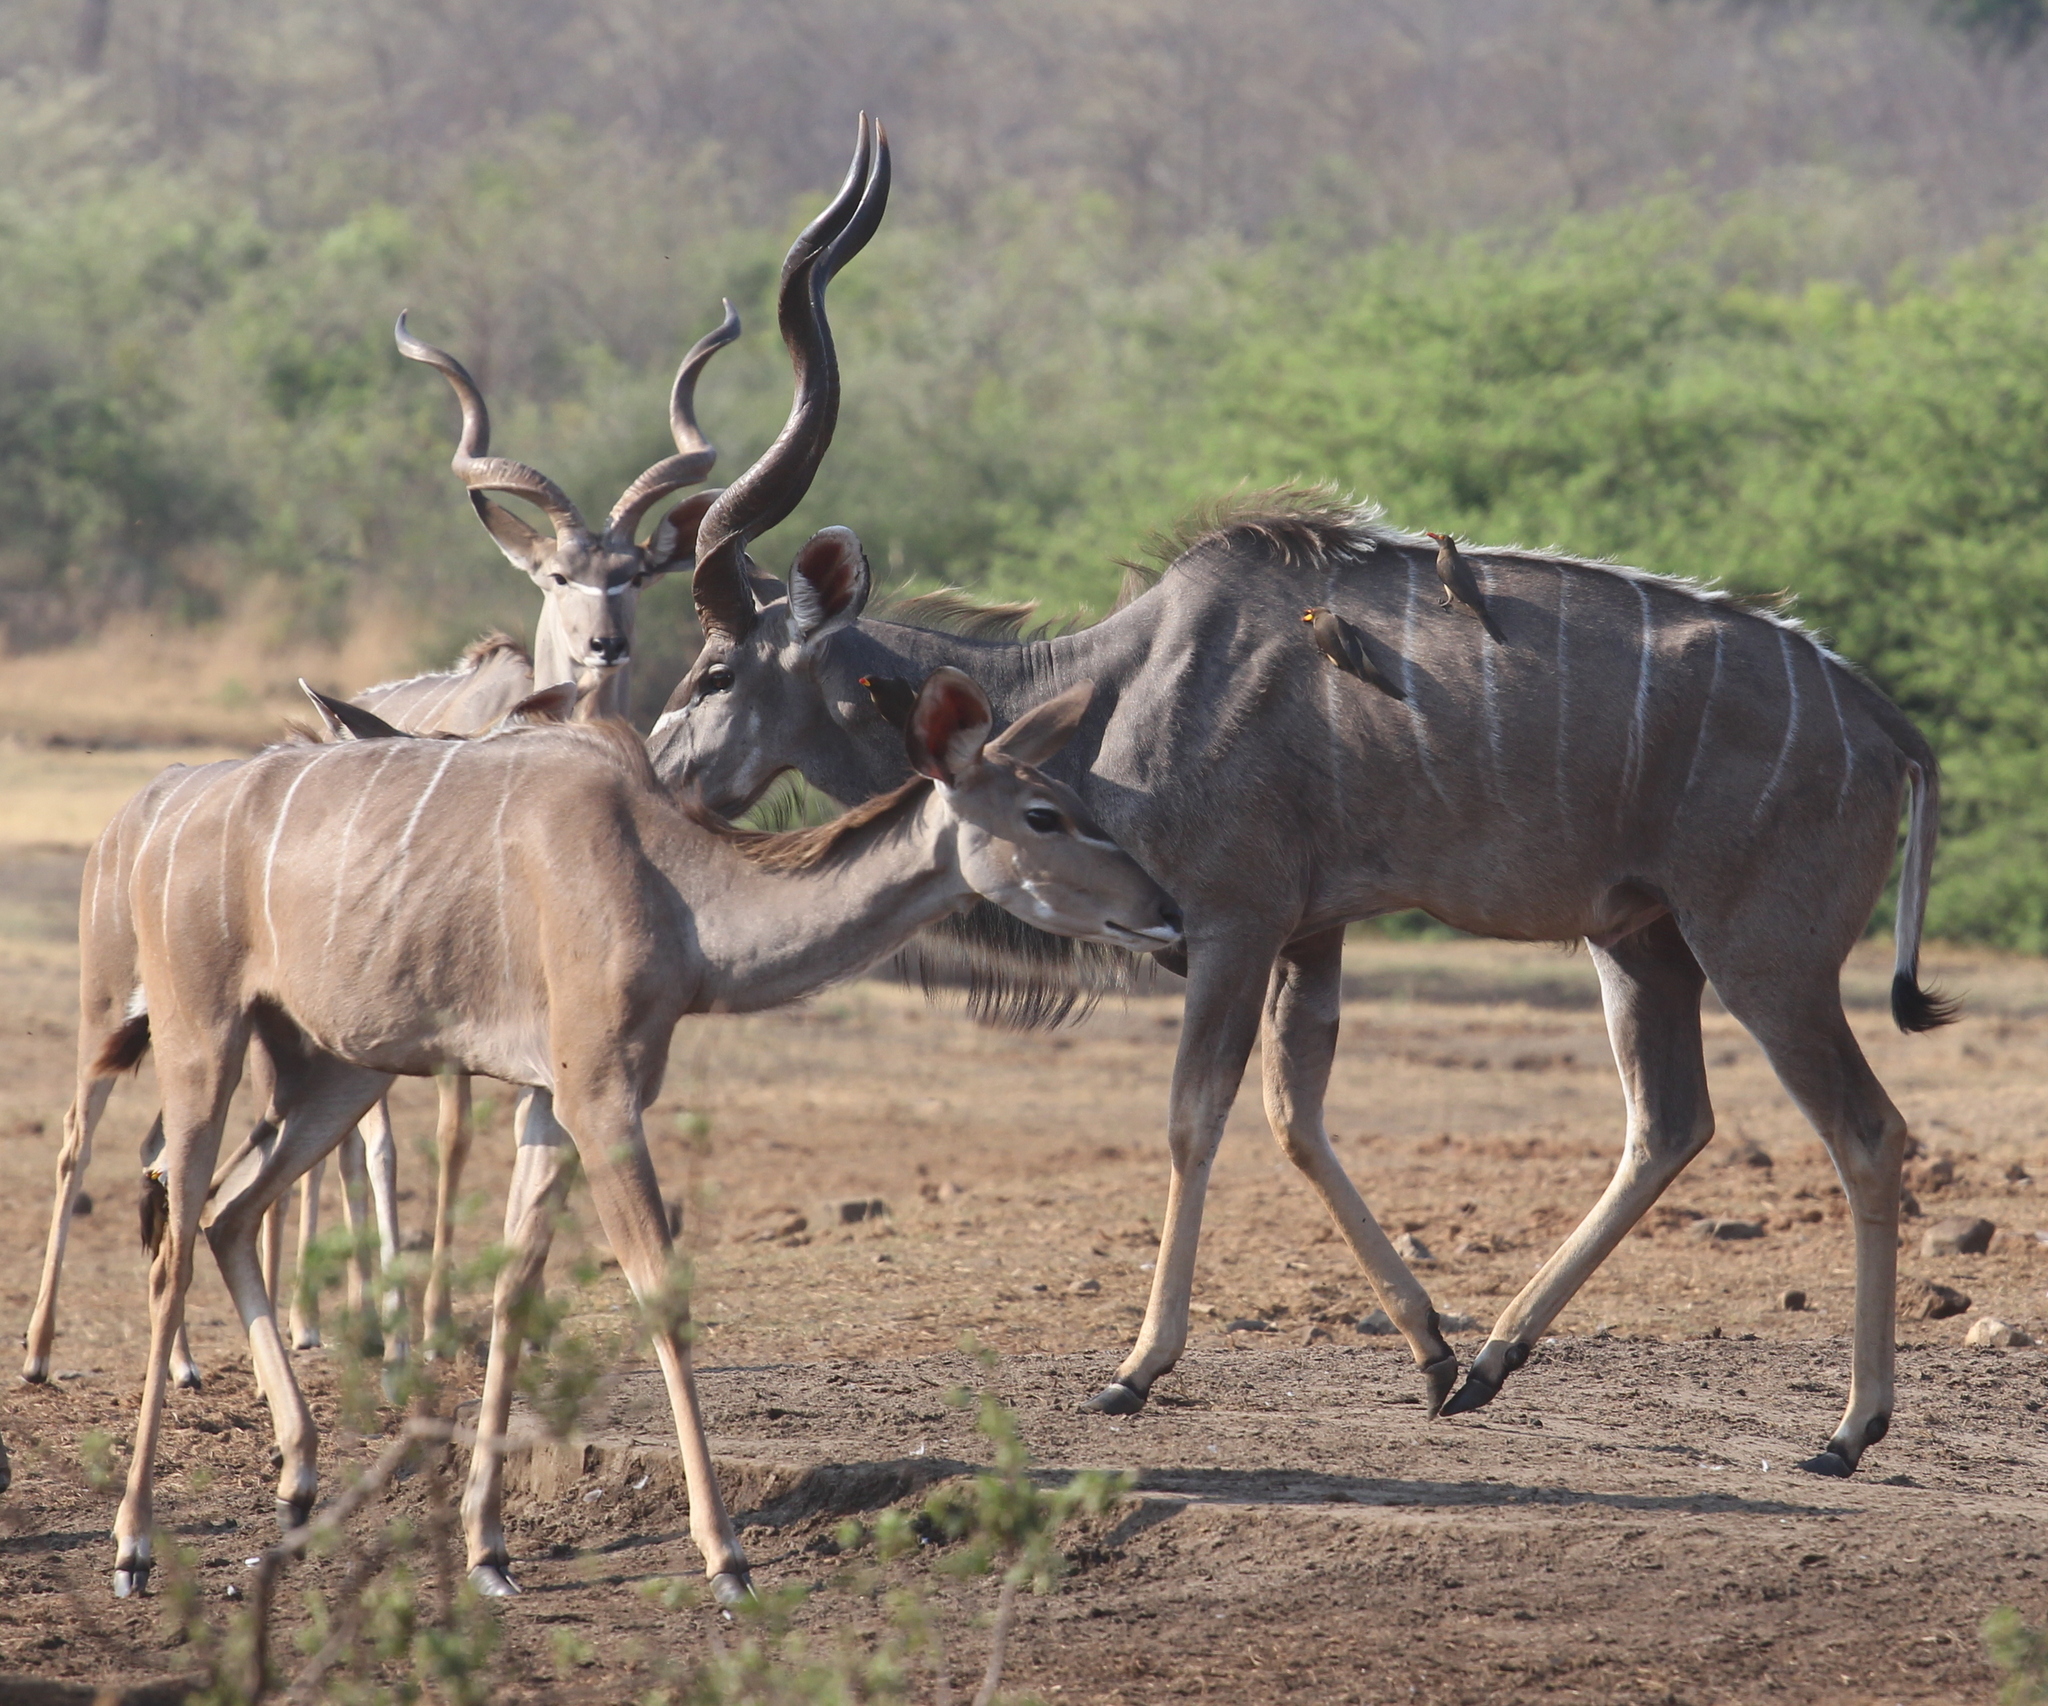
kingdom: Animalia
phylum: Chordata
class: Mammalia
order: Artiodactyla
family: Bovidae
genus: Tragelaphus
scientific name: Tragelaphus strepsiceros
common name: Greater kudu
